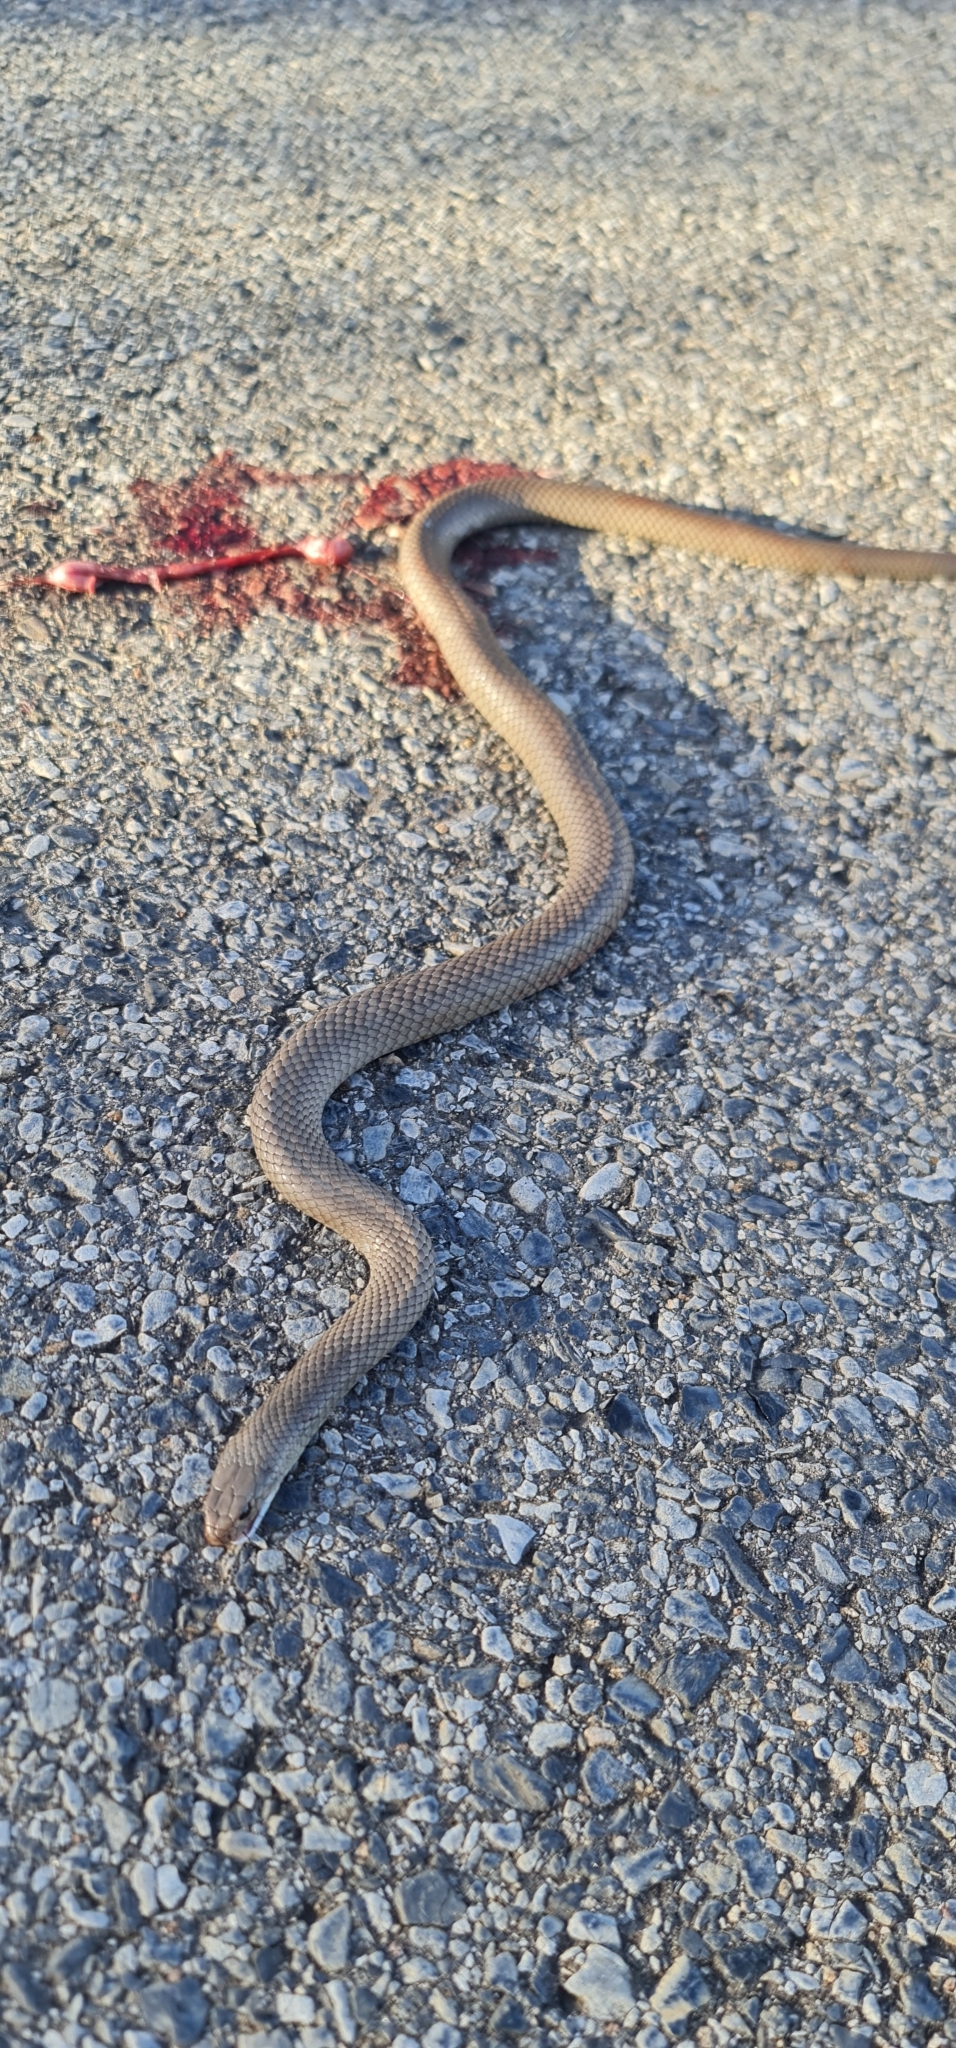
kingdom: Animalia
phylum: Chordata
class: Squamata
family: Elapidae
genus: Pseudonaja
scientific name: Pseudonaja textilis
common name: Eastern brown snake
